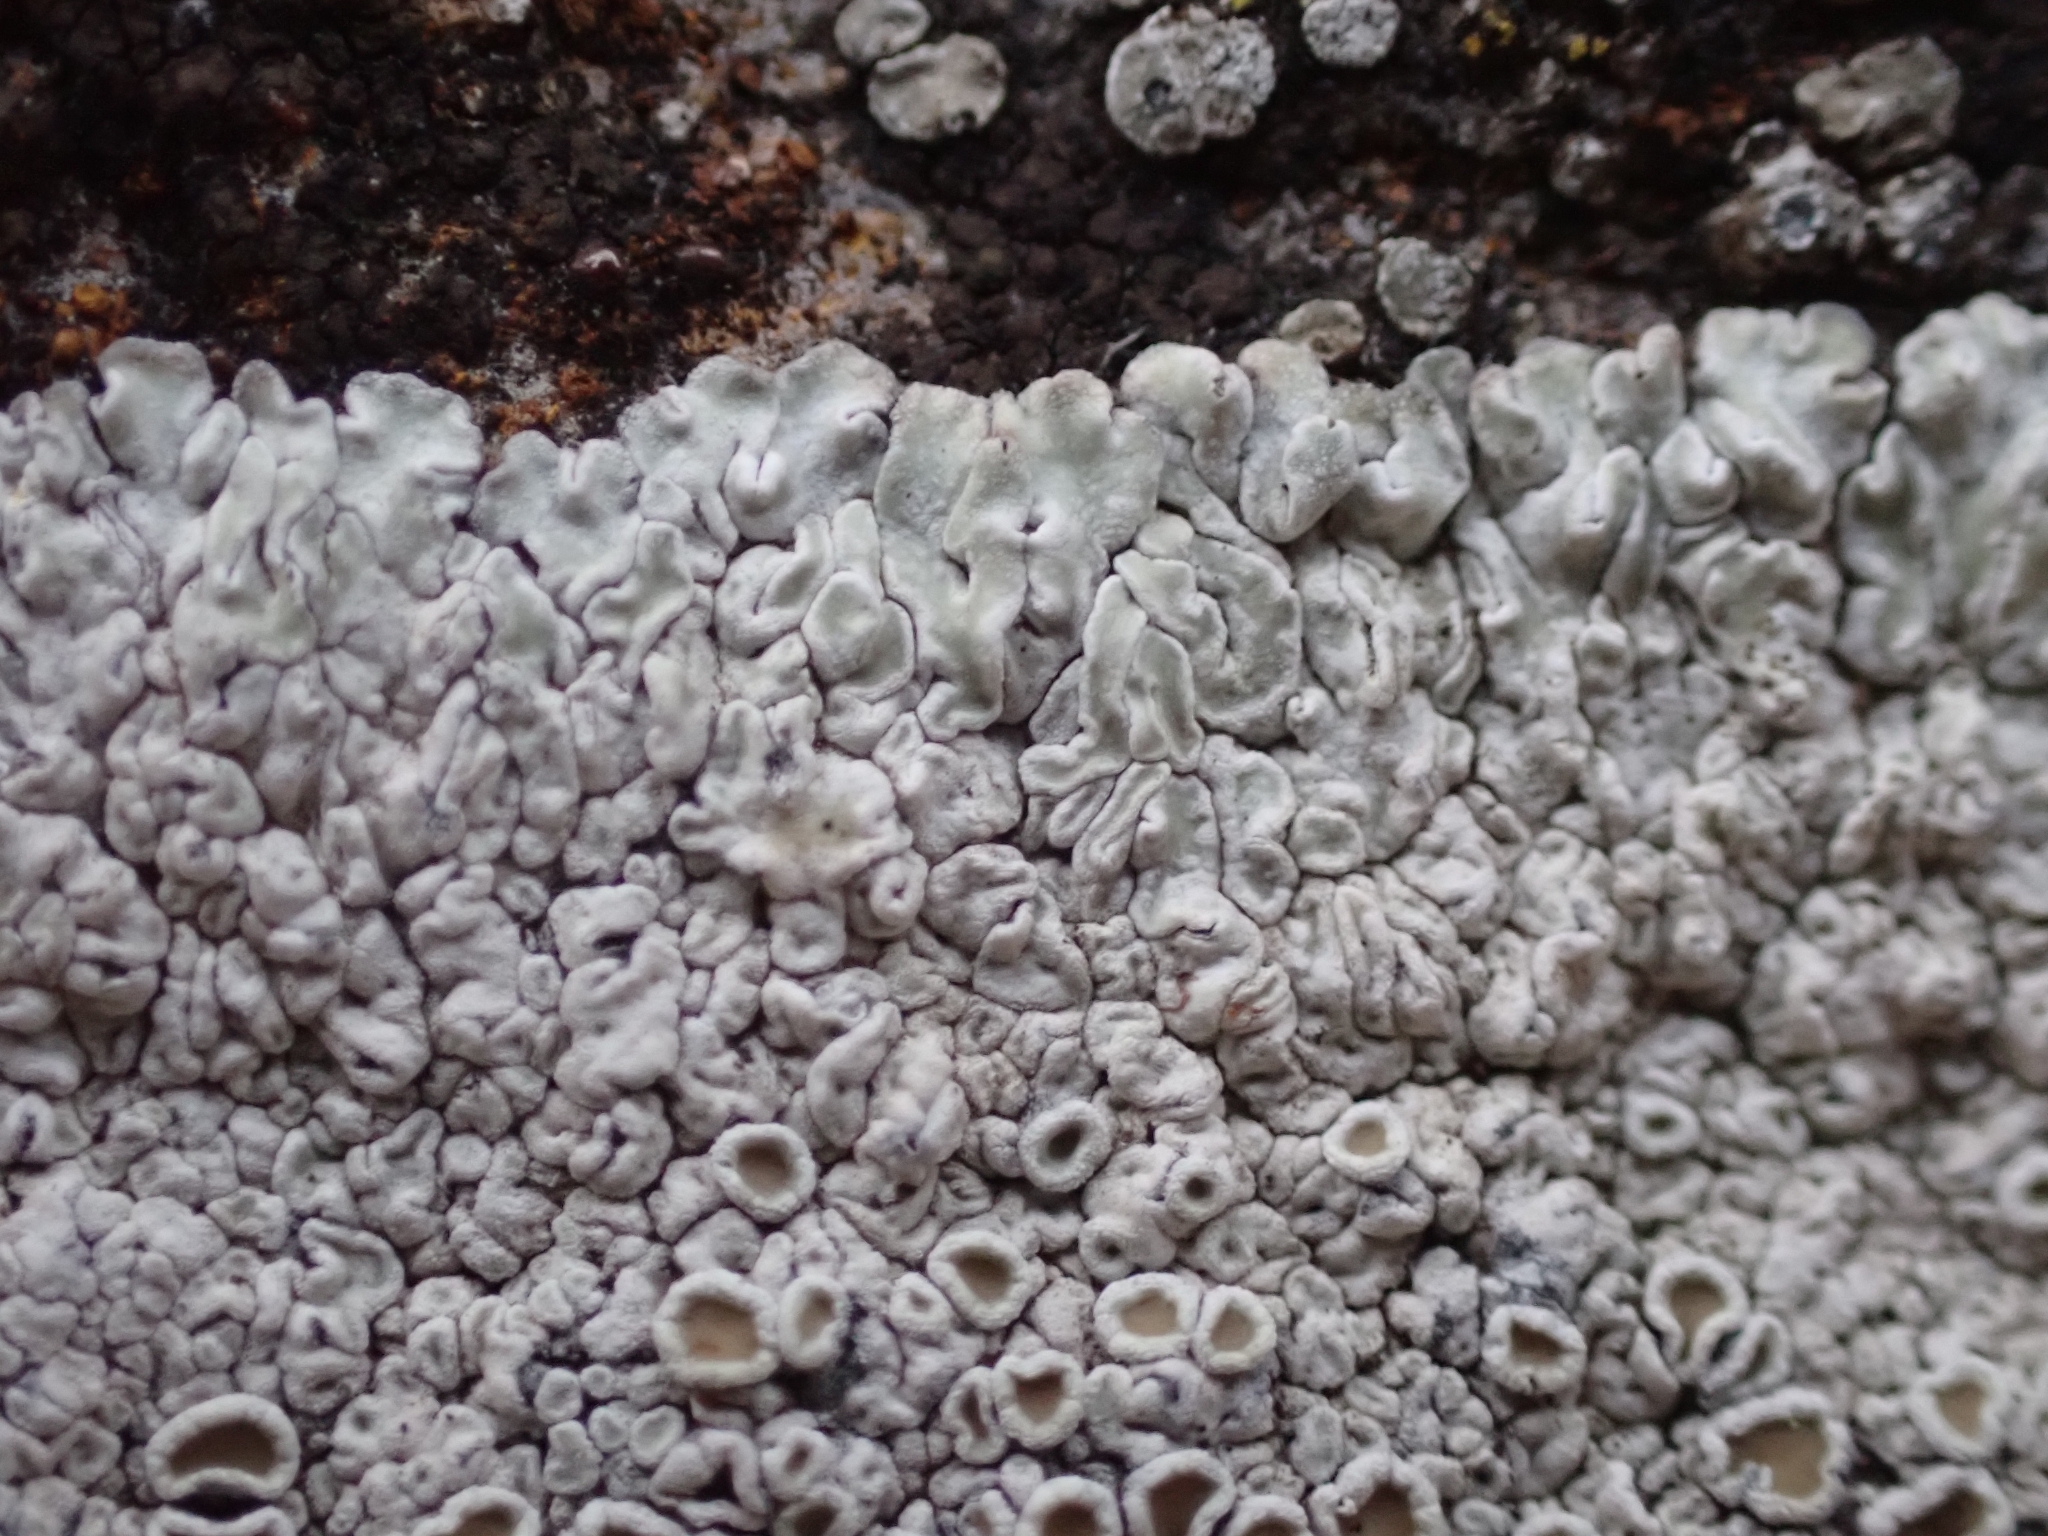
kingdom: Fungi
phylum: Ascomycota
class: Lecanoromycetes
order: Lecanorales
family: Lecanoraceae
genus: Protoparmeliopsis
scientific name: Protoparmeliopsis muralis
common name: Stonewall rim lichen
